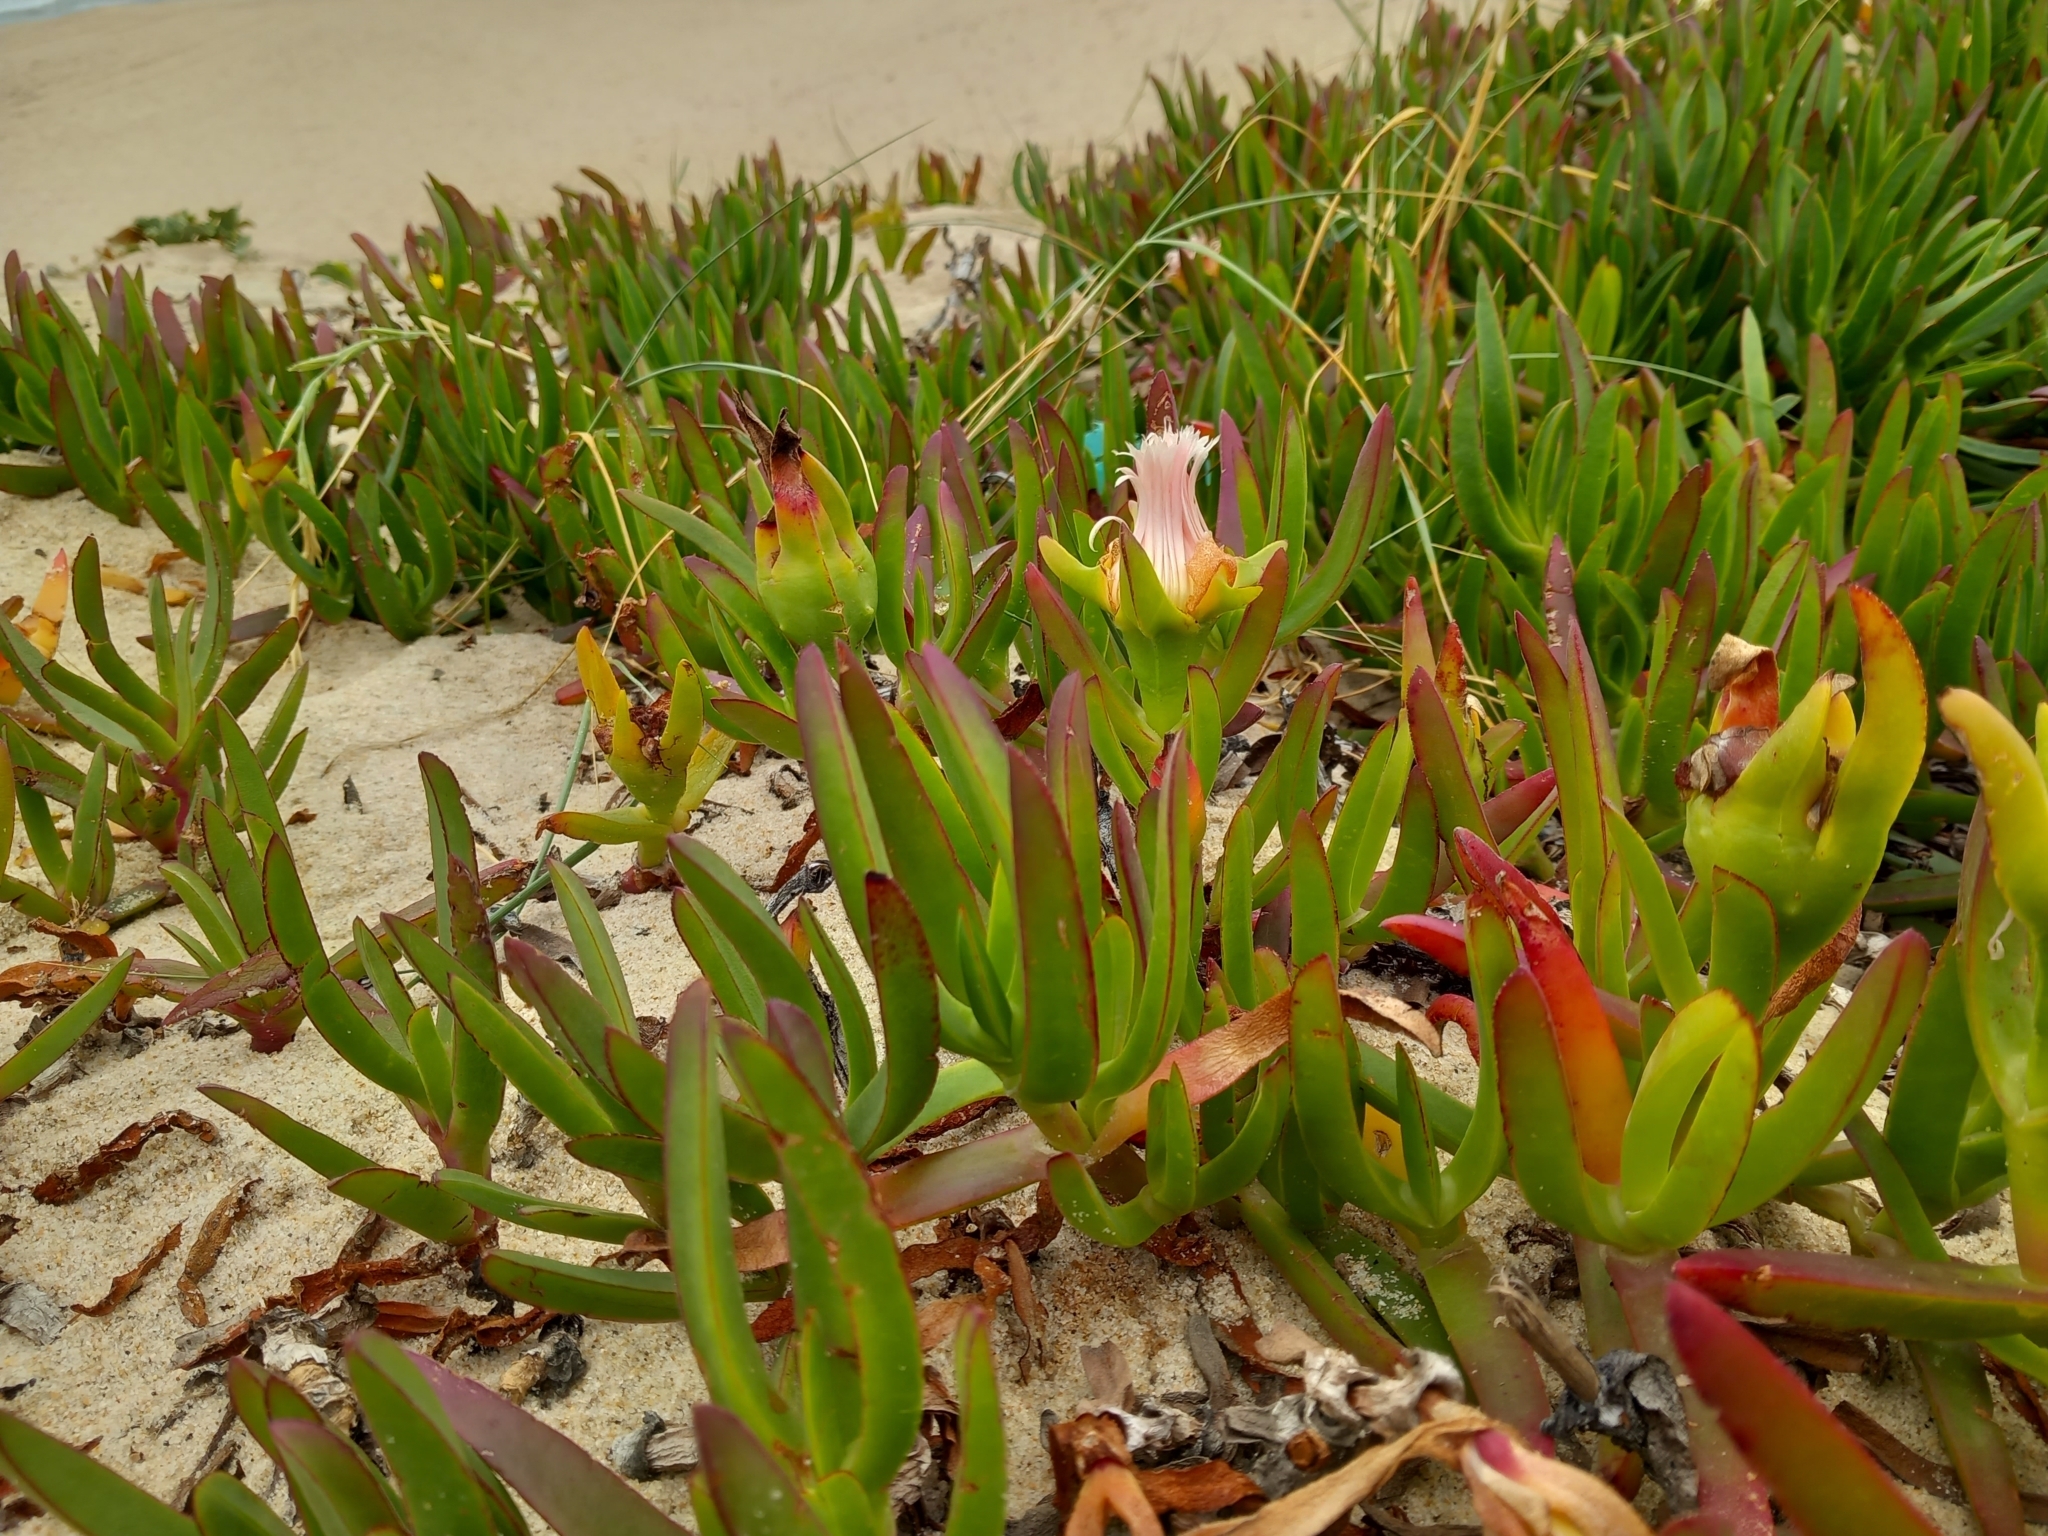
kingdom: Plantae
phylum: Tracheophyta
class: Magnoliopsida
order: Caryophyllales
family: Aizoaceae
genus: Carpobrotus
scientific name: Carpobrotus edulis
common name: Hottentot-fig
